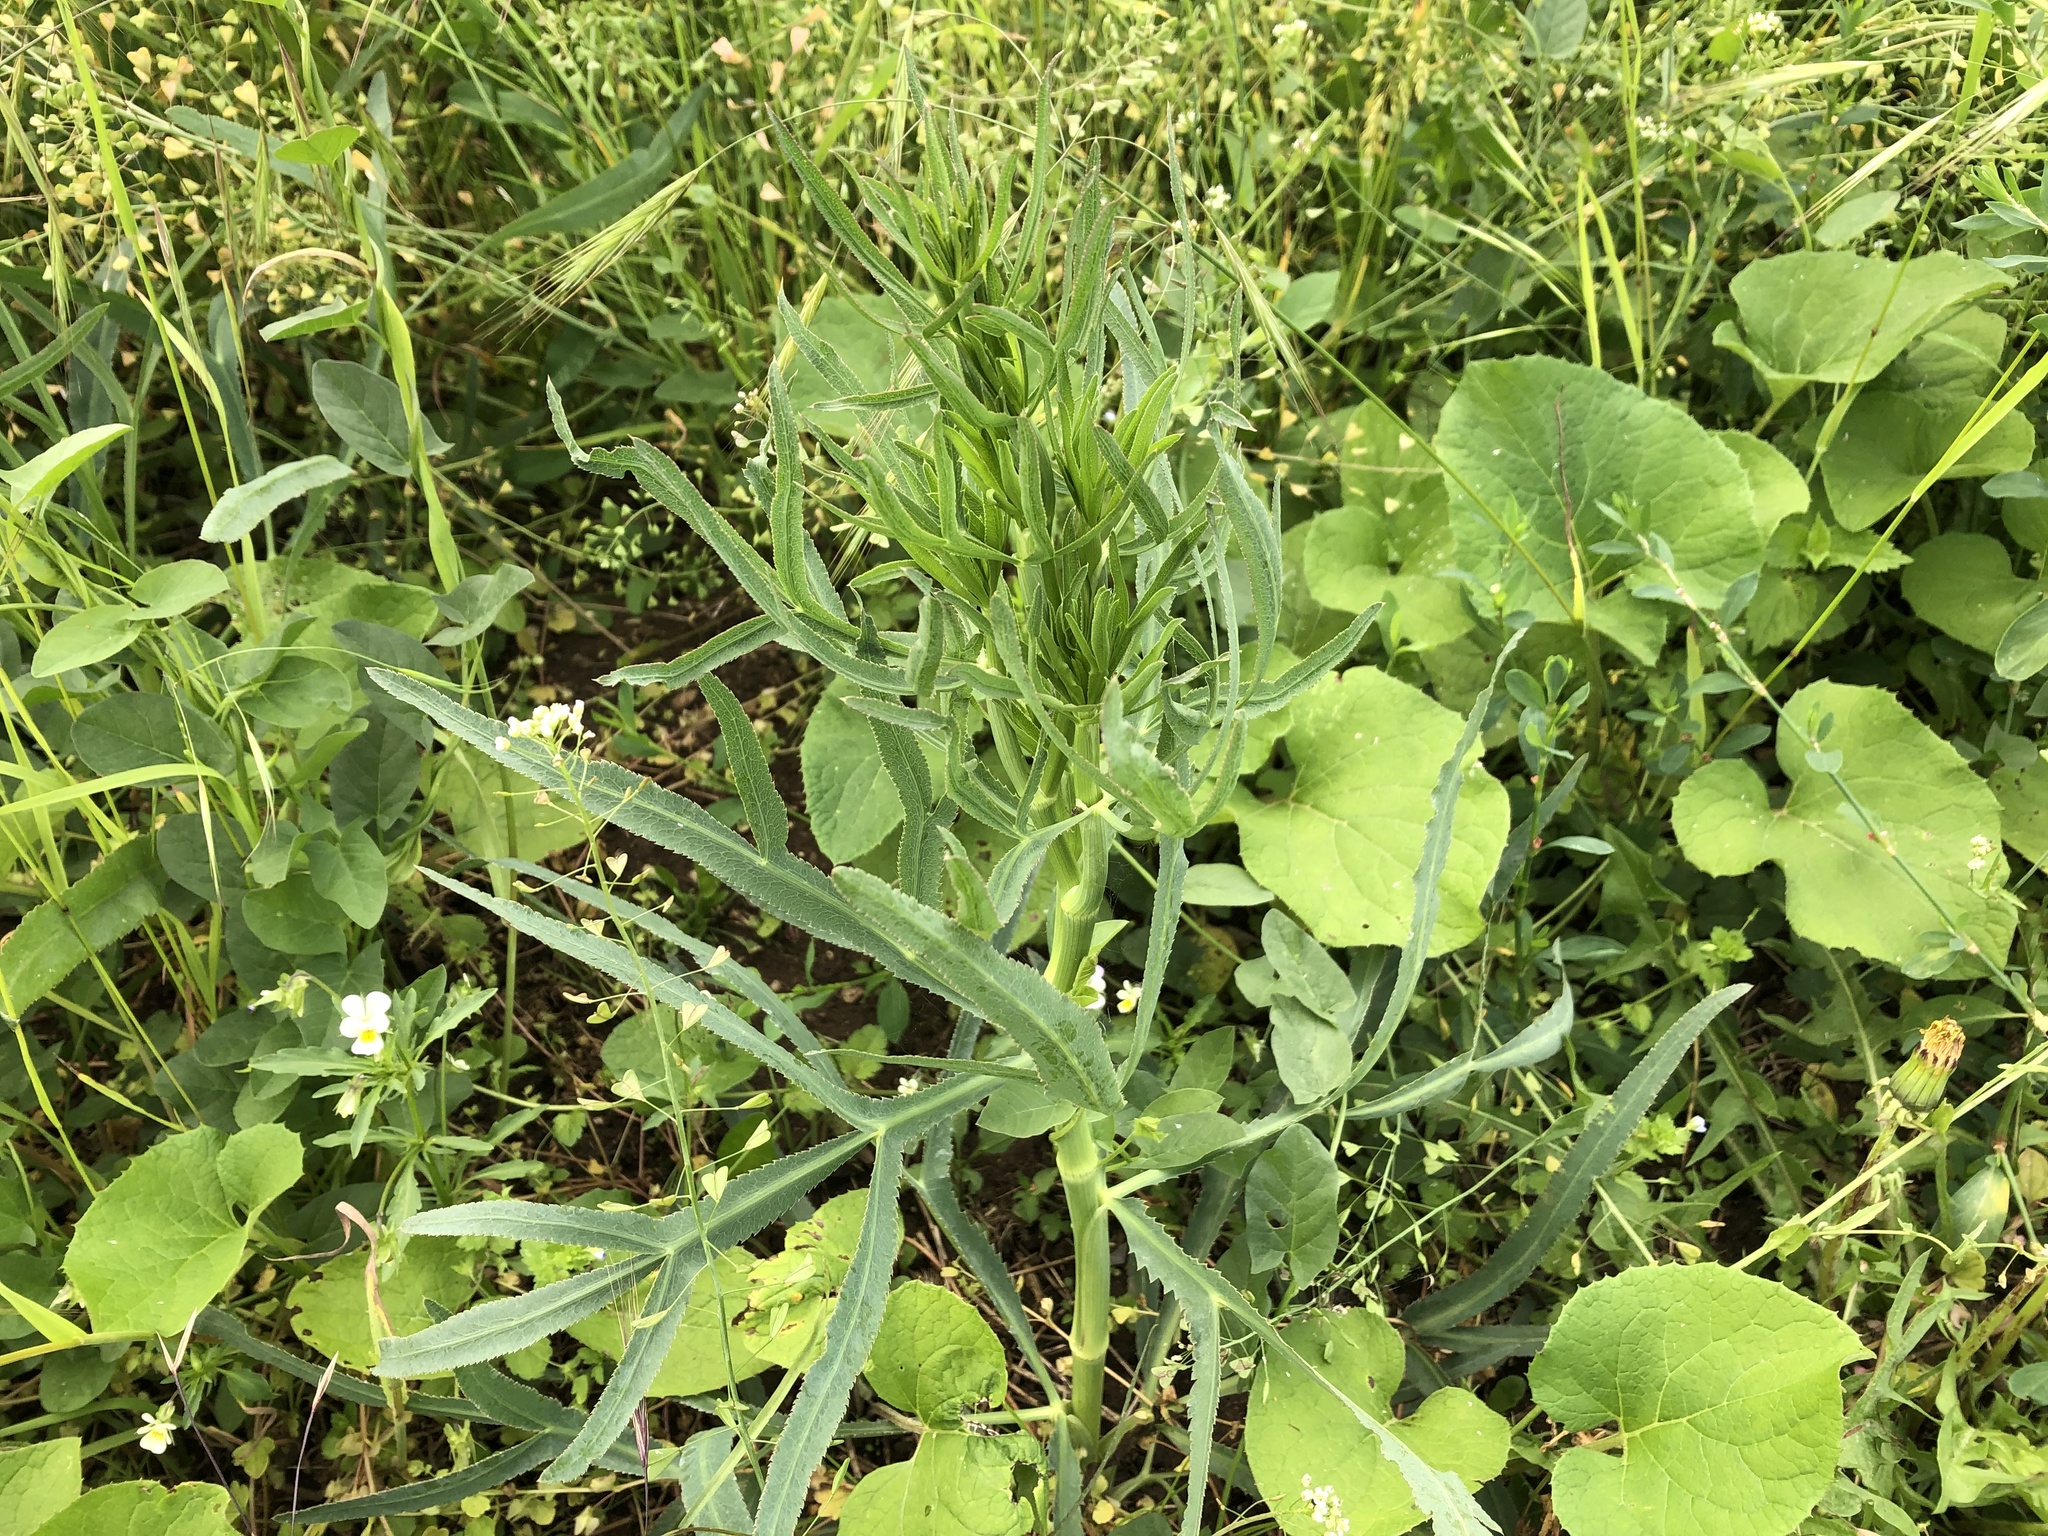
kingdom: Plantae
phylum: Tracheophyta
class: Magnoliopsida
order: Apiales
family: Apiaceae
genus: Falcaria
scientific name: Falcaria vulgaris
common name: Longleaf
